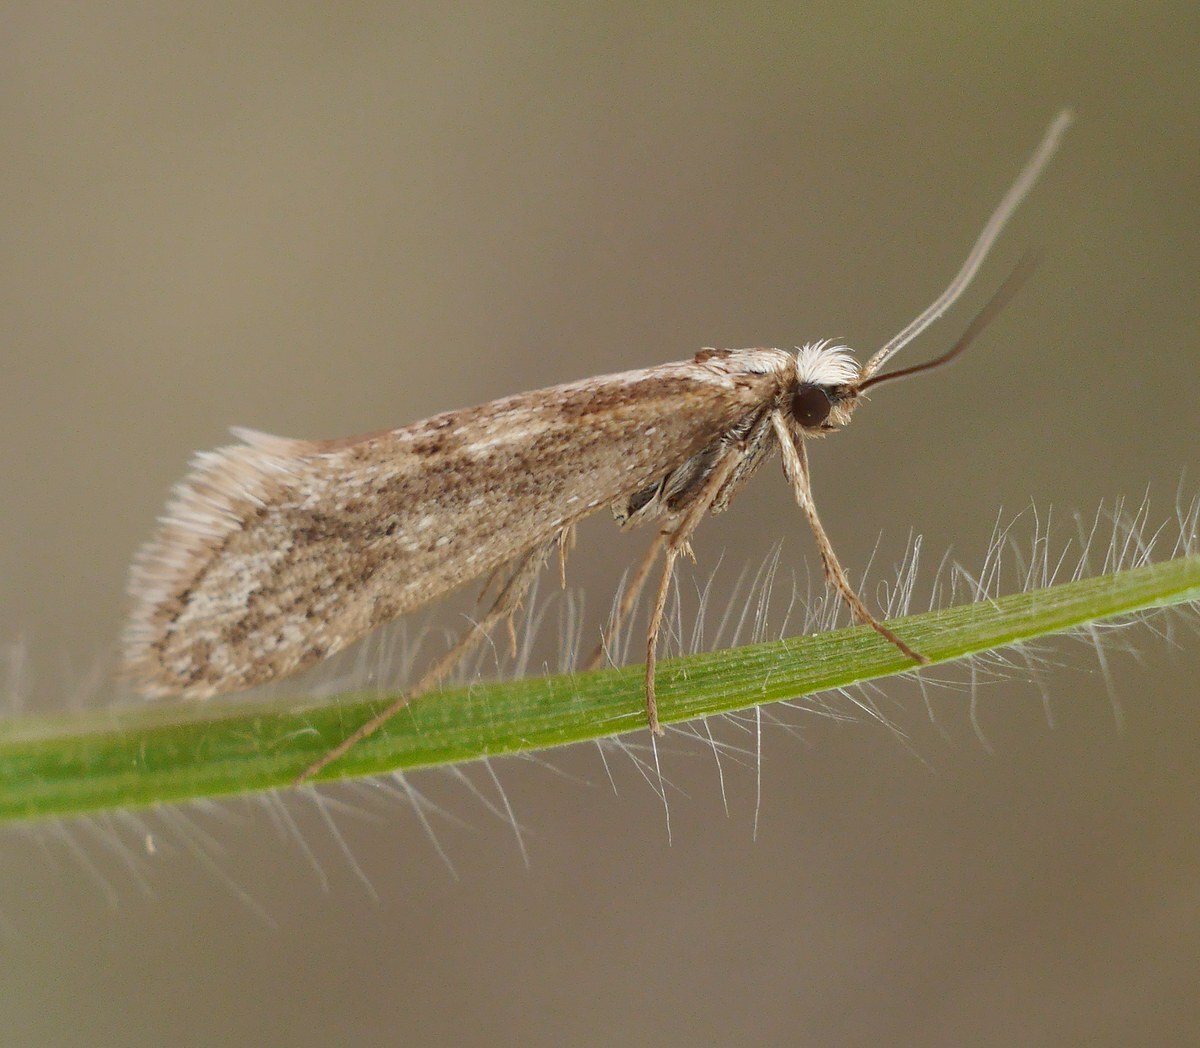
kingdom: Animalia
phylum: Arthropoda
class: Insecta
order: Lepidoptera
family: Eriocottidae
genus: Deuterotinea
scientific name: Deuterotinea casanella
